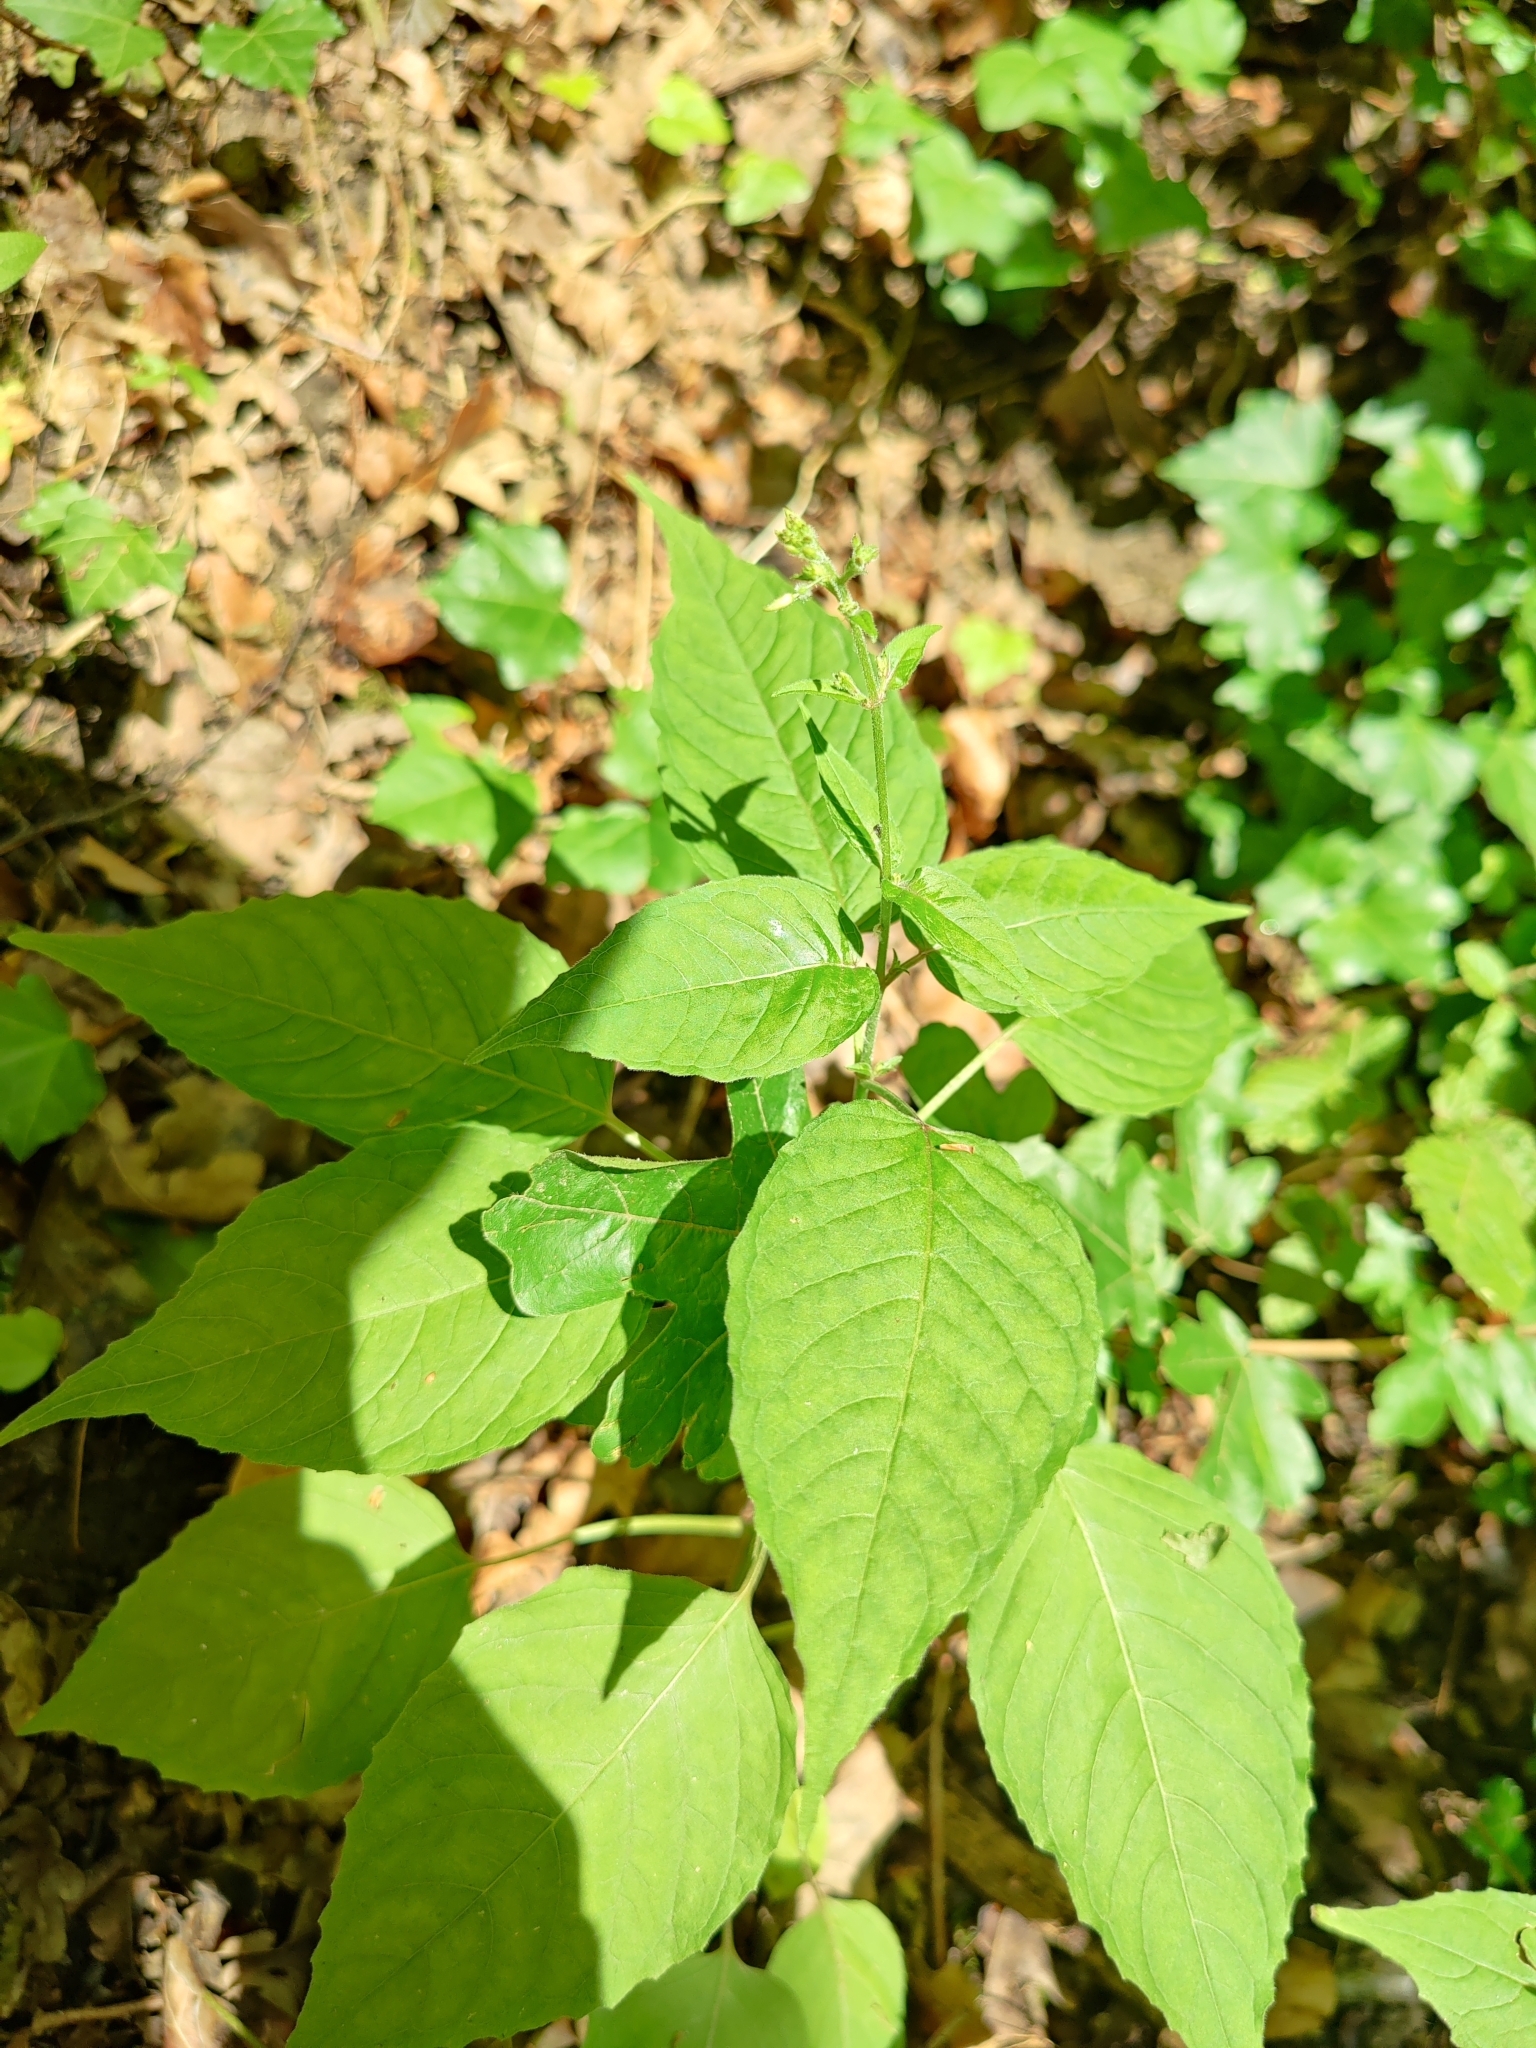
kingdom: Plantae
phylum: Tracheophyta
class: Magnoliopsida
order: Myrtales
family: Onagraceae
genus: Circaea
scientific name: Circaea lutetiana
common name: Enchanter's-nightshade
